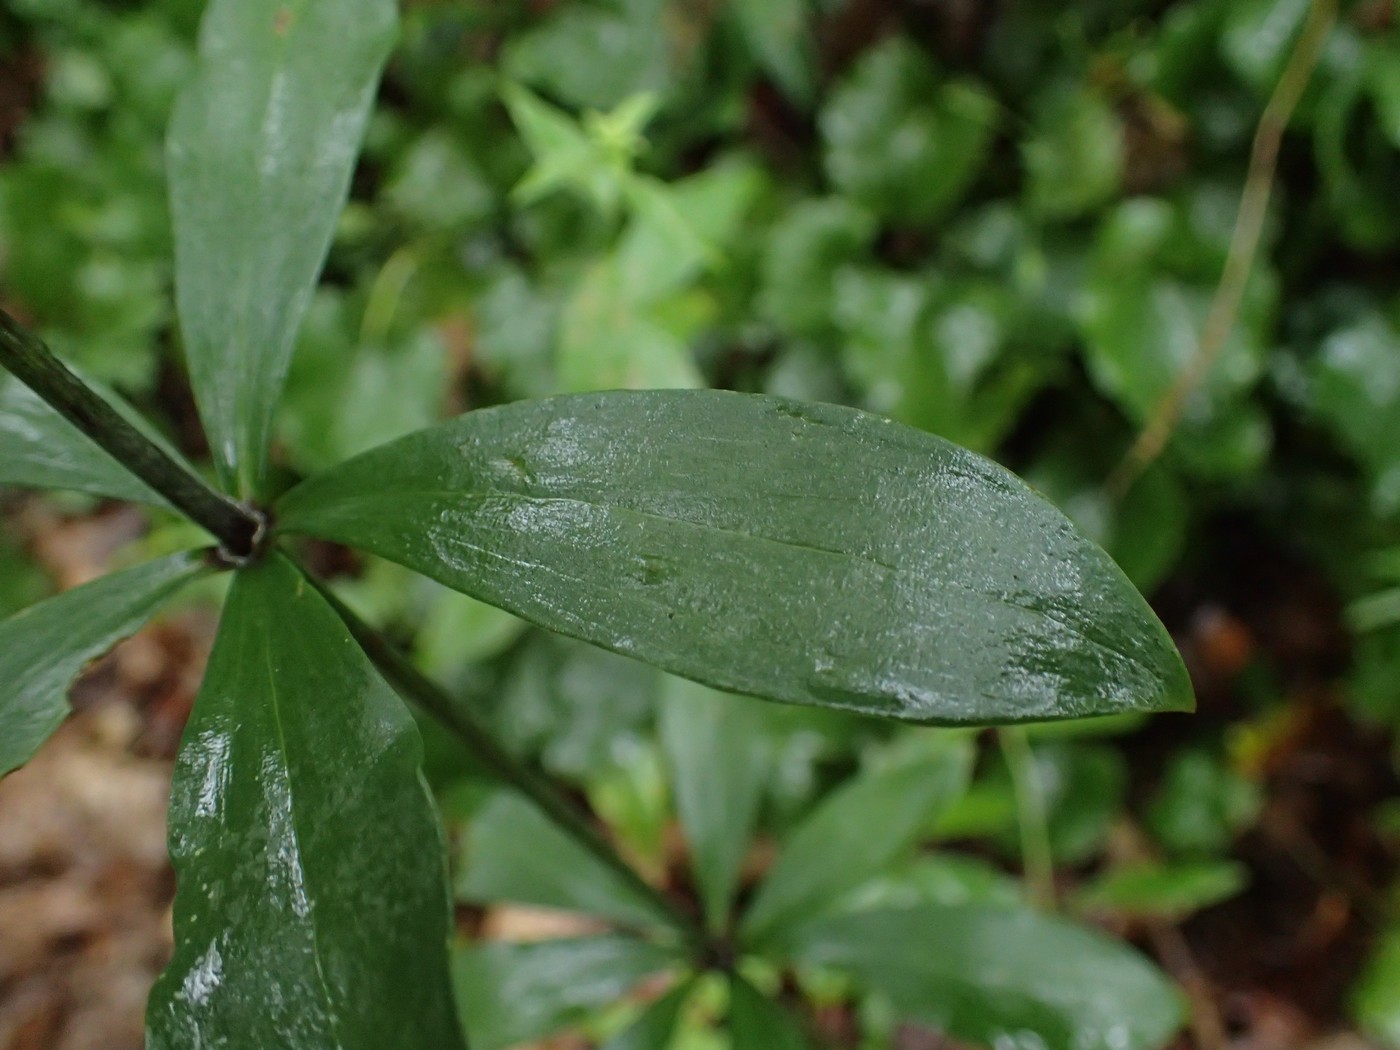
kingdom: Plantae
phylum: Tracheophyta
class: Liliopsida
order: Liliales
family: Liliaceae
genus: Lilium
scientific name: Lilium michauxii
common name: Carolina lily
